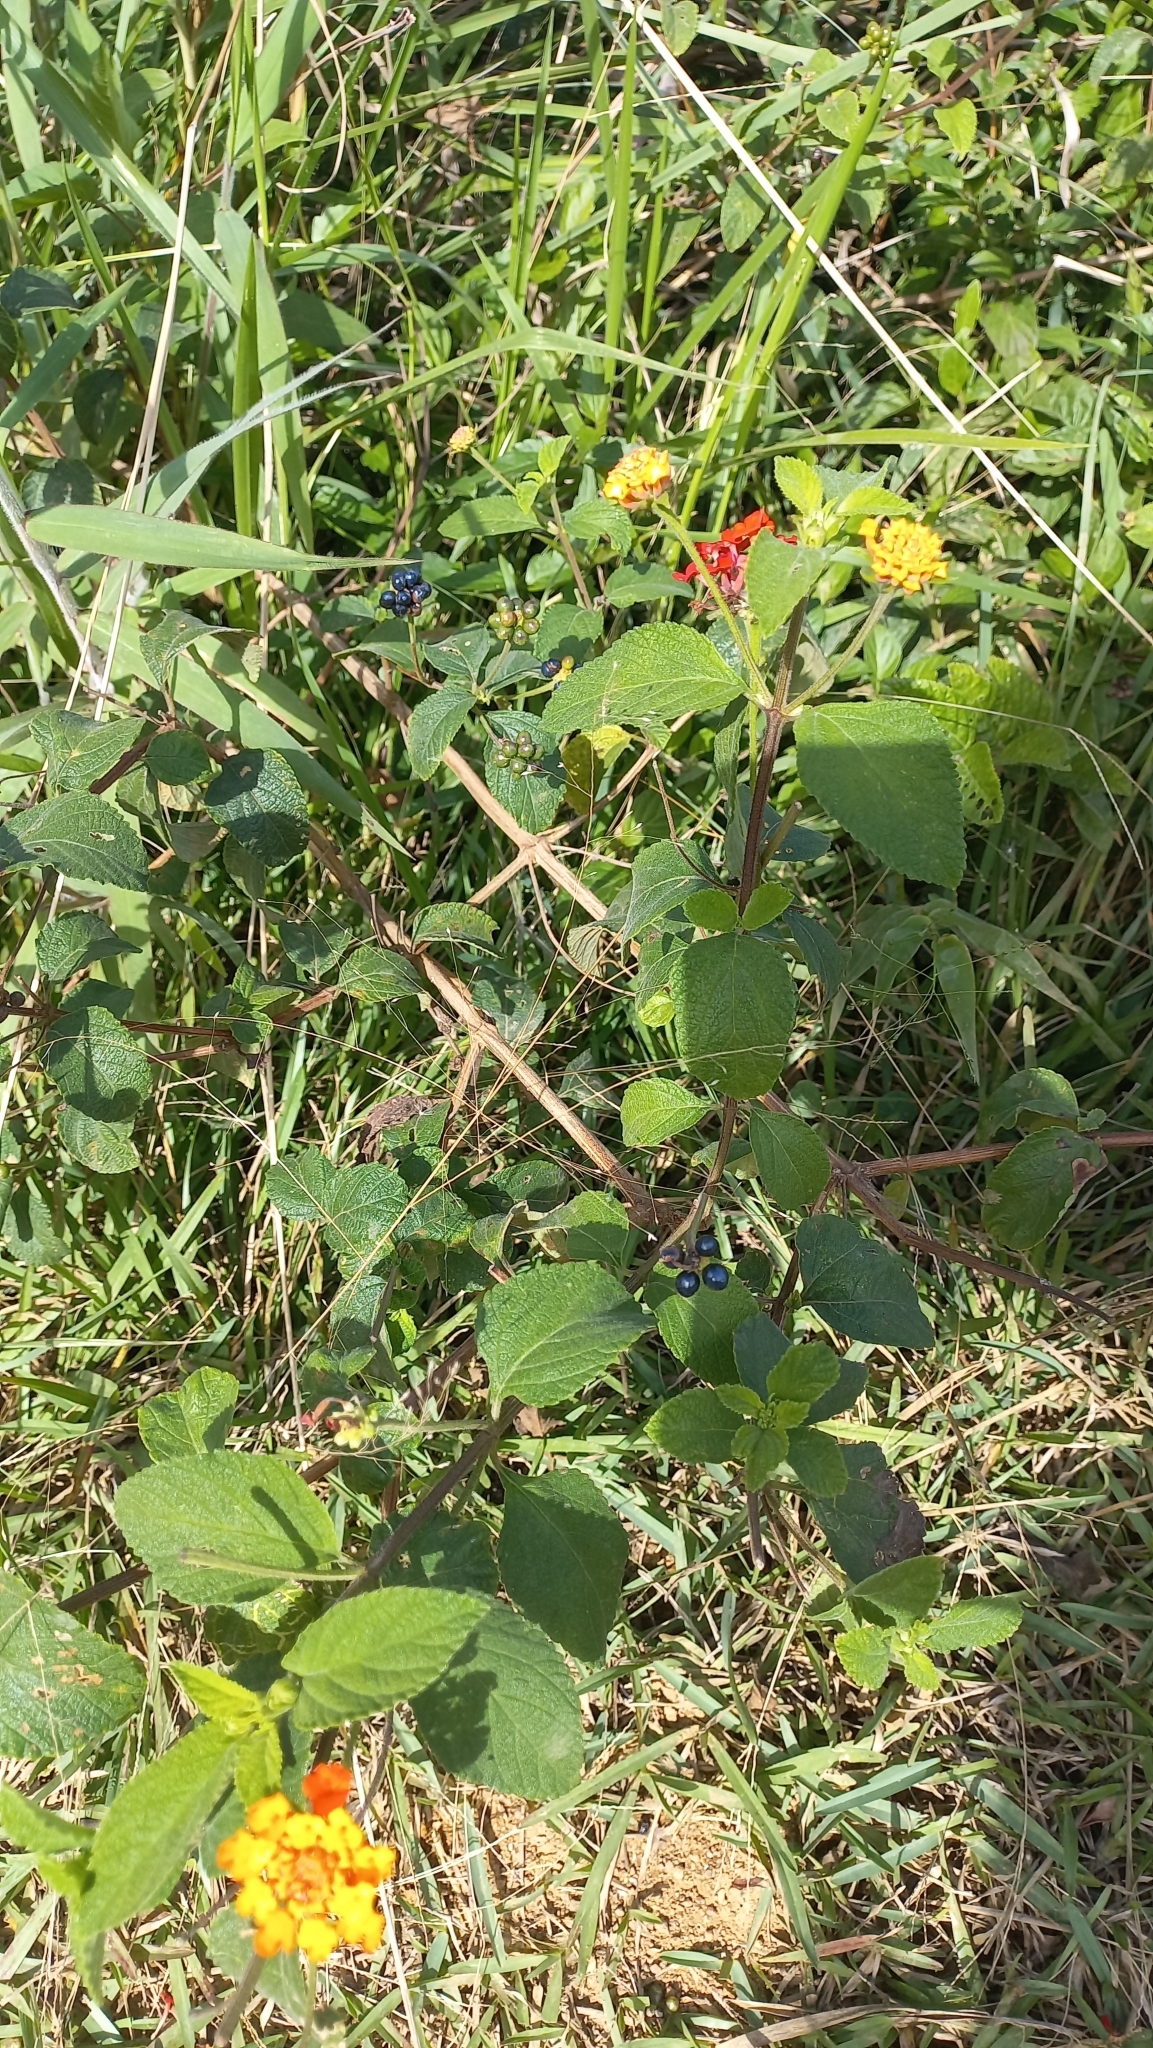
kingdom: Plantae
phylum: Tracheophyta
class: Magnoliopsida
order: Lamiales
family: Verbenaceae
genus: Lantana
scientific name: Lantana camara
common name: Lantana
